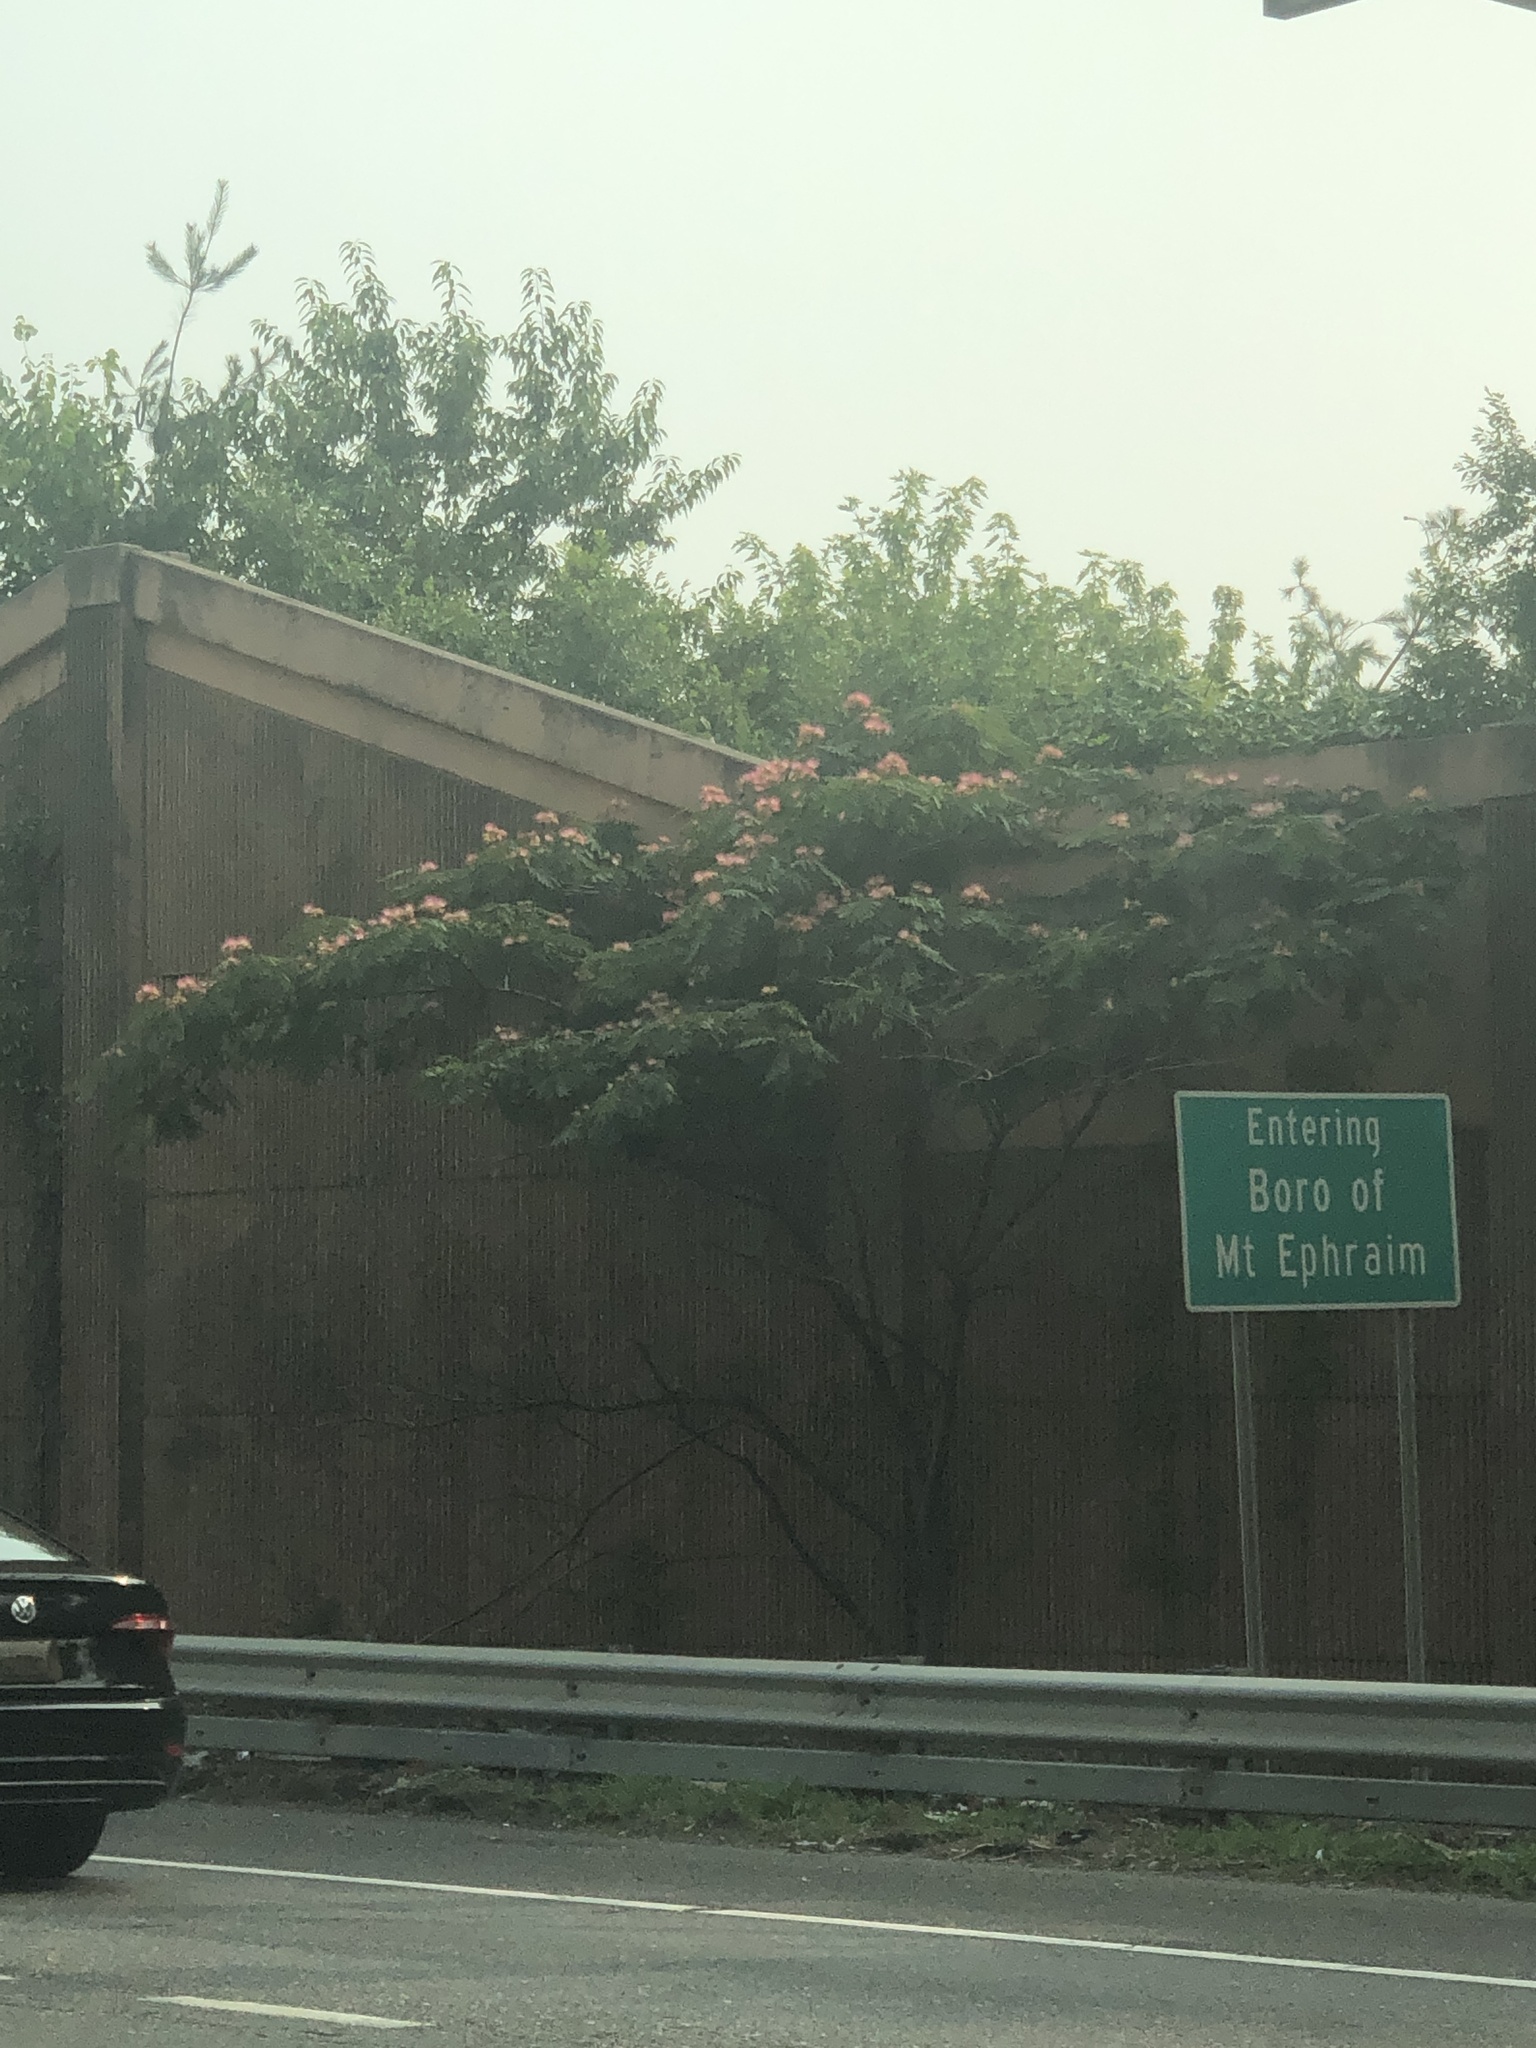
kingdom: Plantae
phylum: Tracheophyta
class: Magnoliopsida
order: Fabales
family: Fabaceae
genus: Albizia
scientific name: Albizia julibrissin
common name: Silktree
